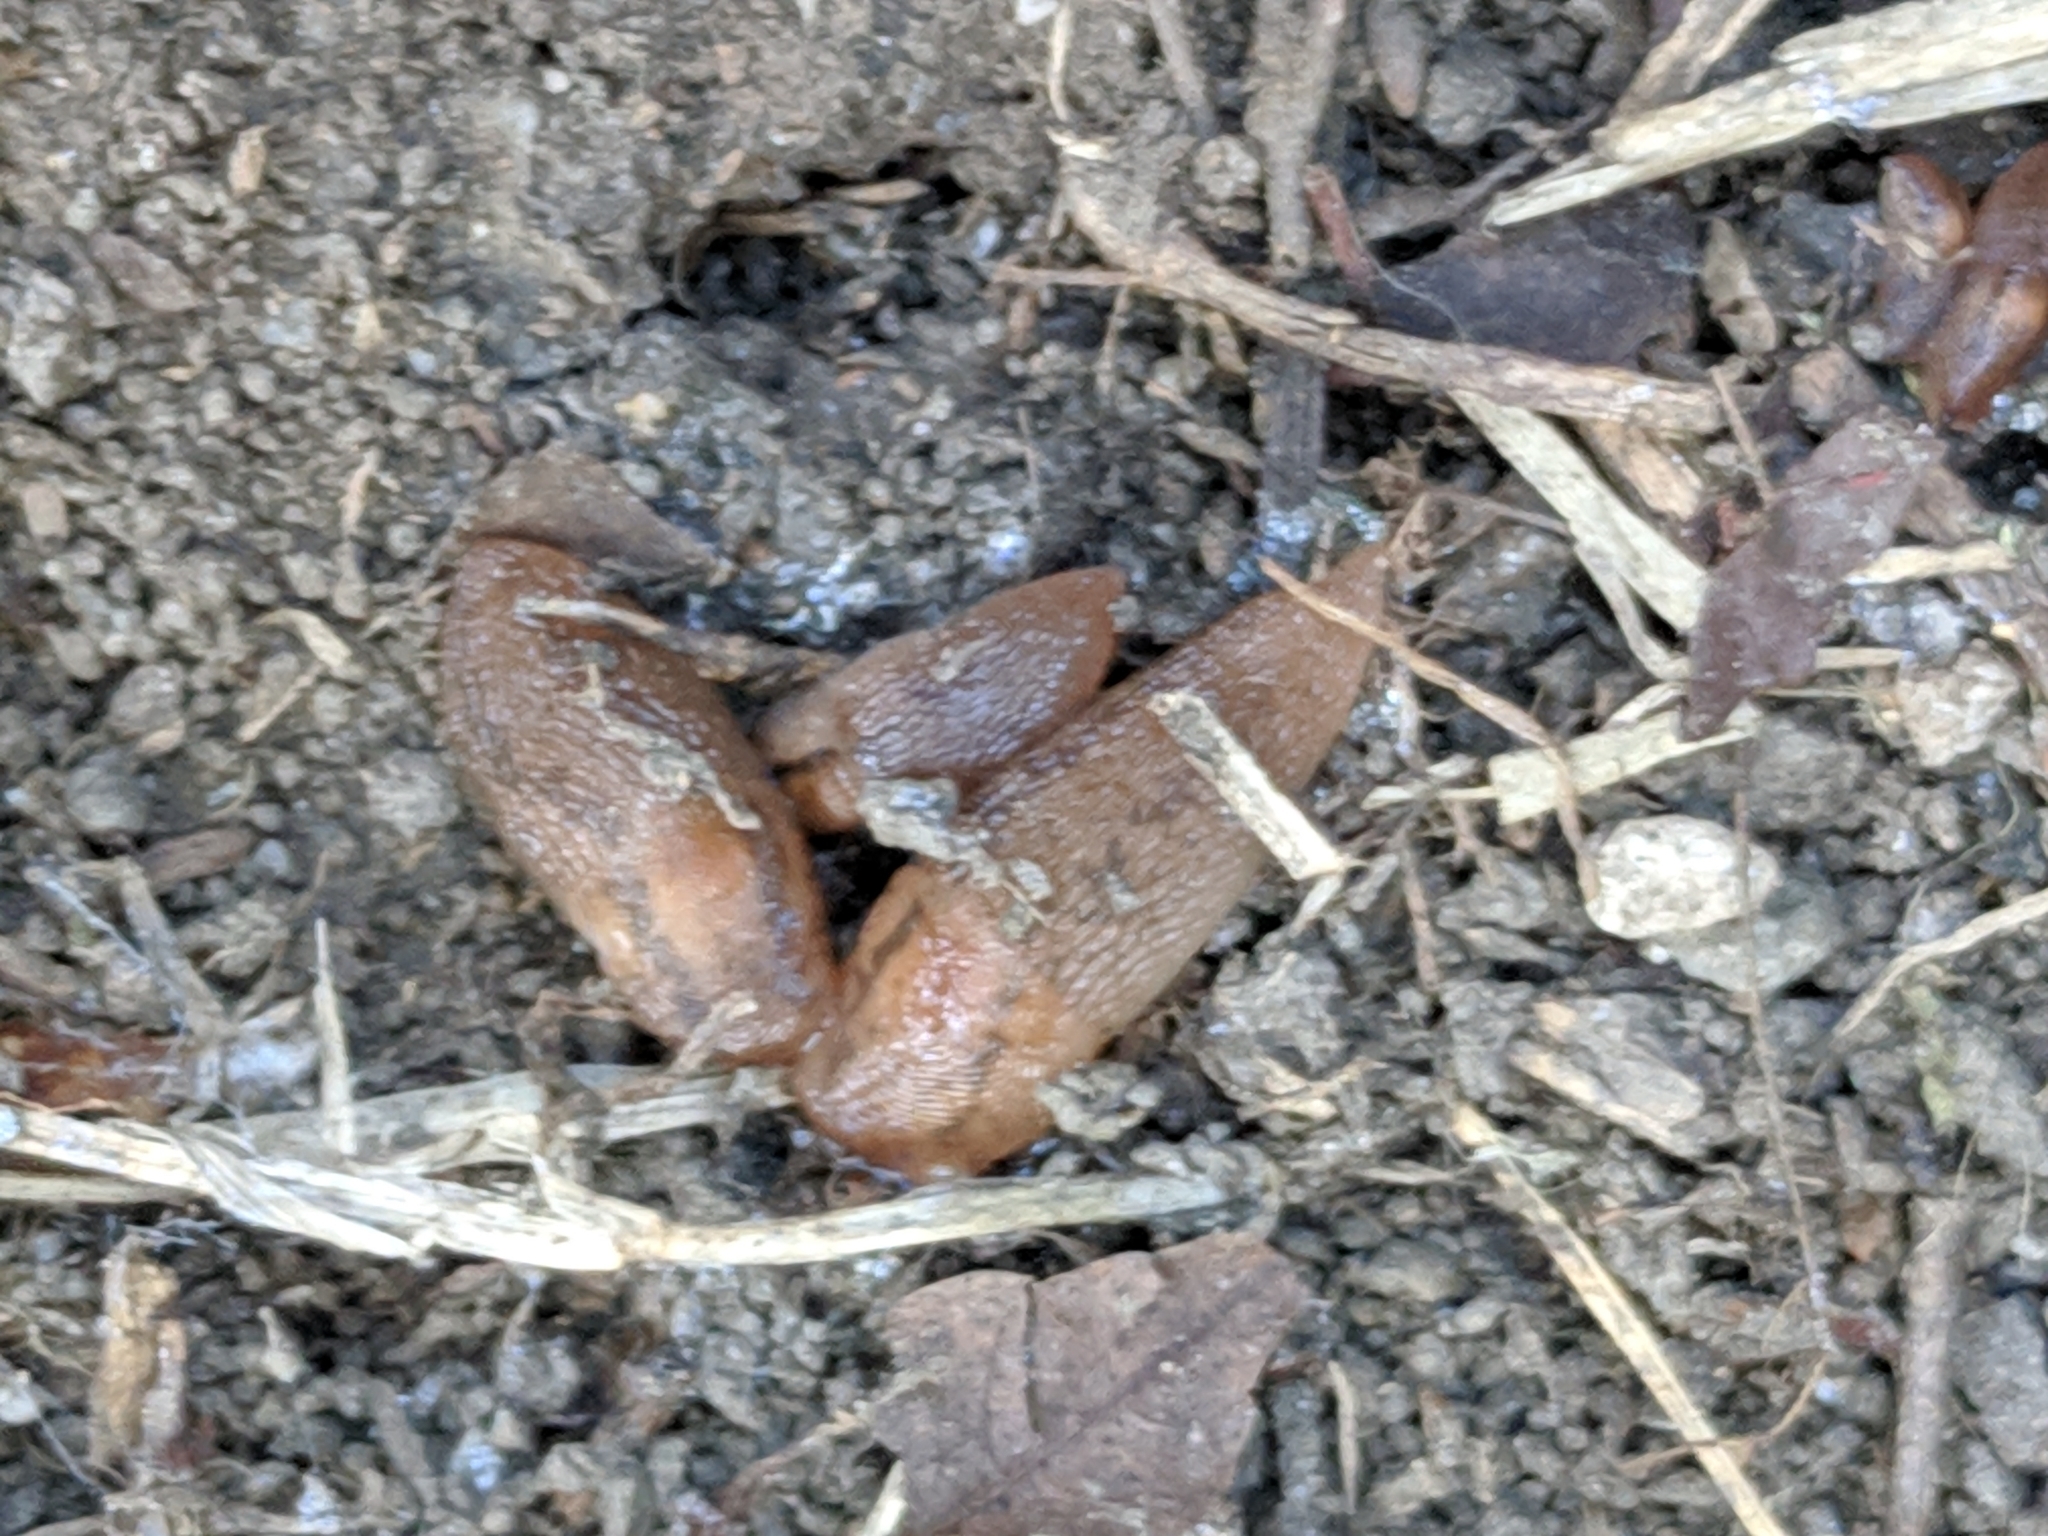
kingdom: Animalia
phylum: Mollusca
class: Gastropoda
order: Stylommatophora
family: Limacidae
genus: Ambigolimax
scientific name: Ambigolimax
